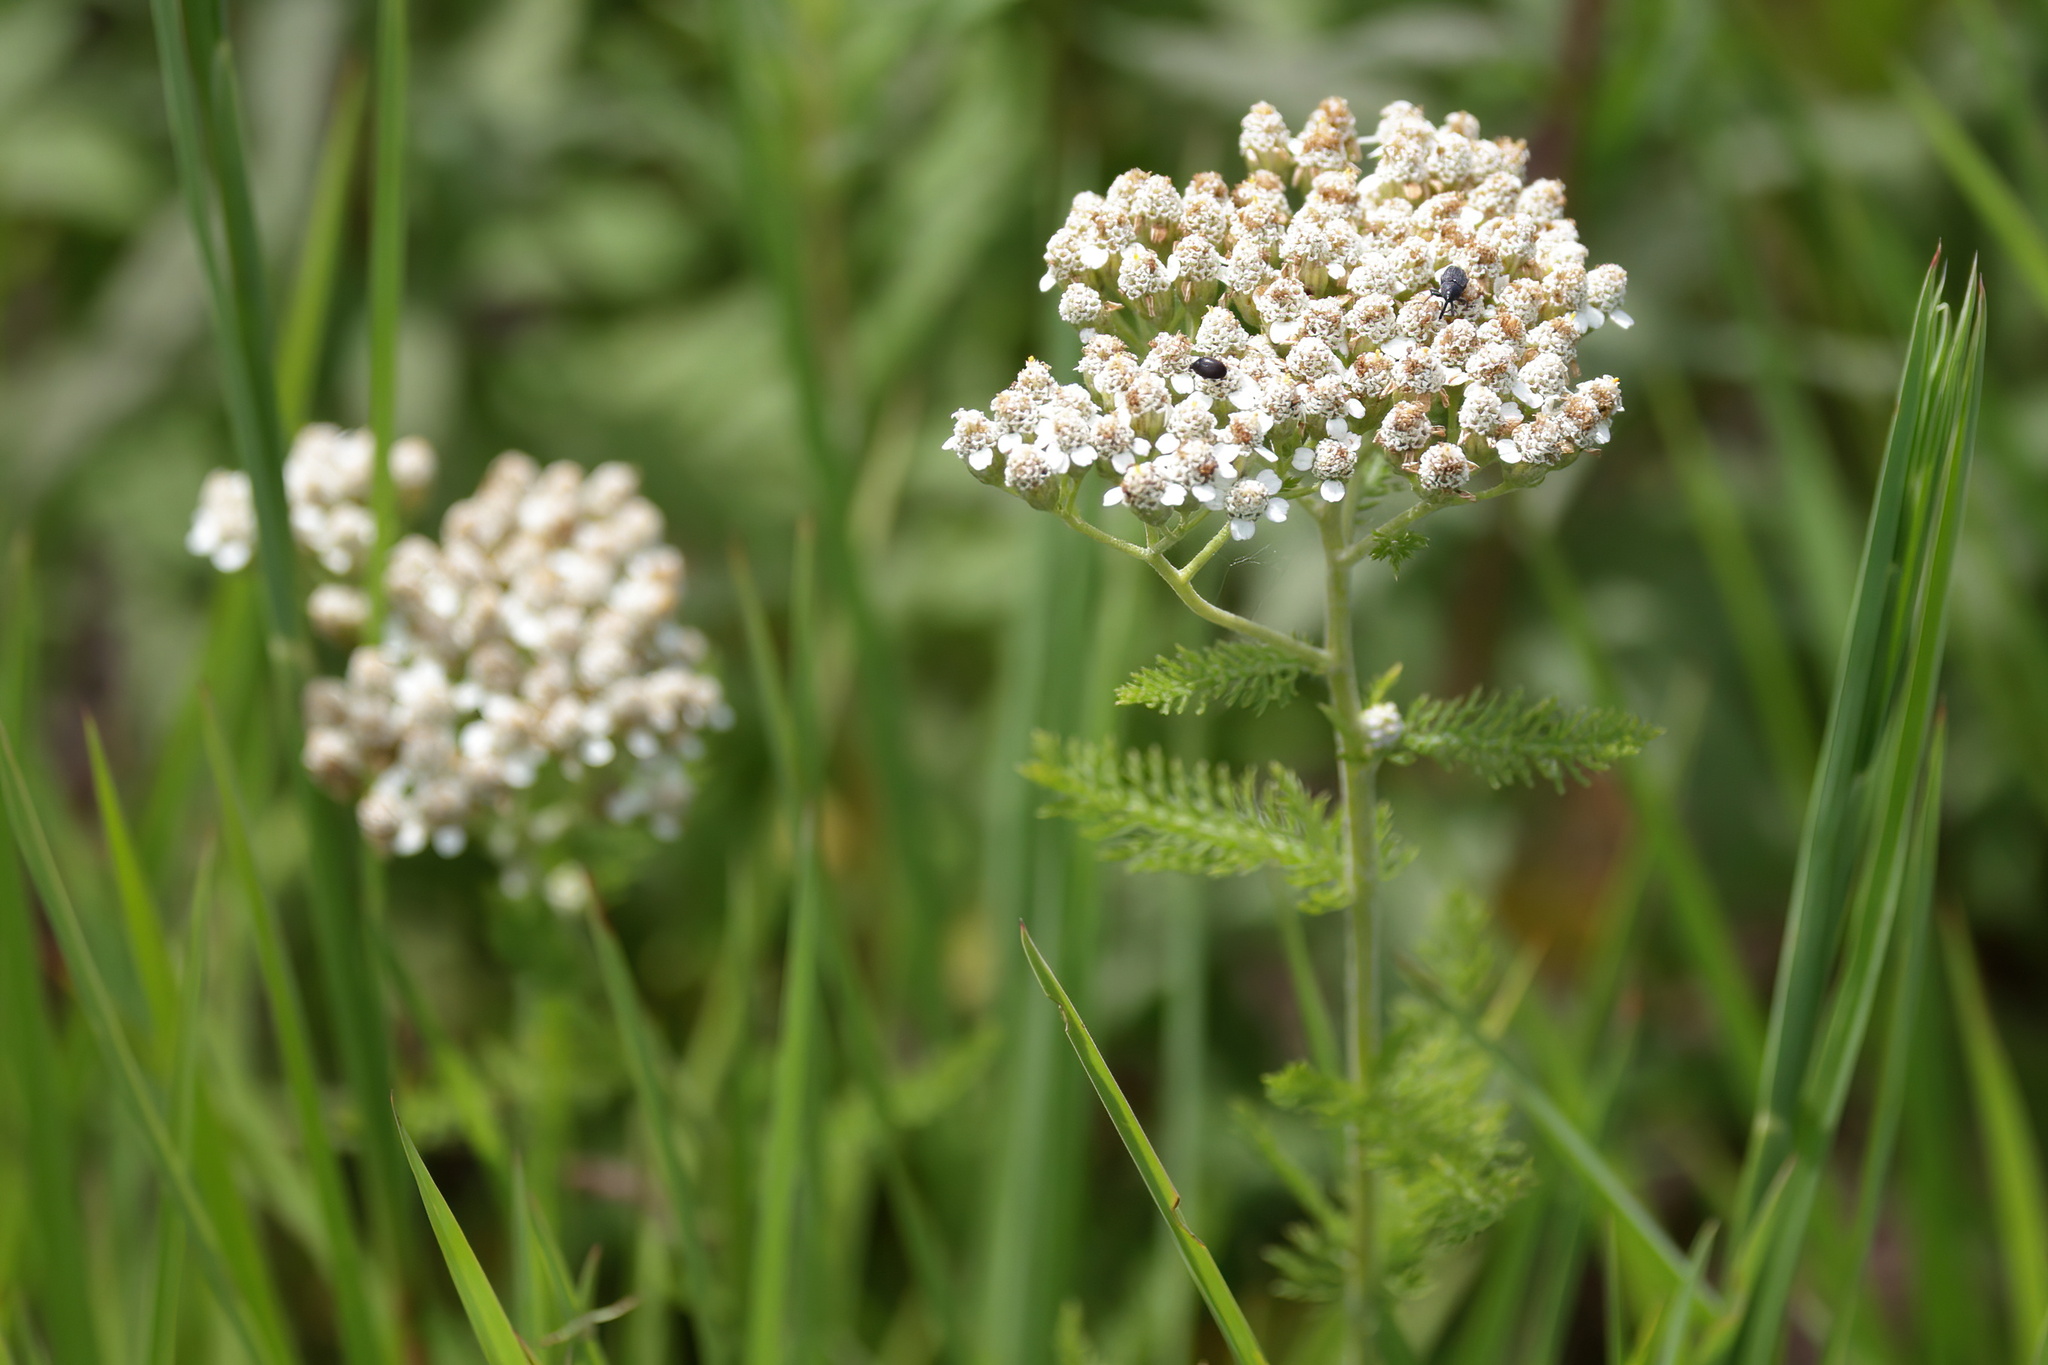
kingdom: Plantae
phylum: Tracheophyta
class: Magnoliopsida
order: Asterales
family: Asteraceae
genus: Achillea
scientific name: Achillea millefolium
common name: Yarrow
